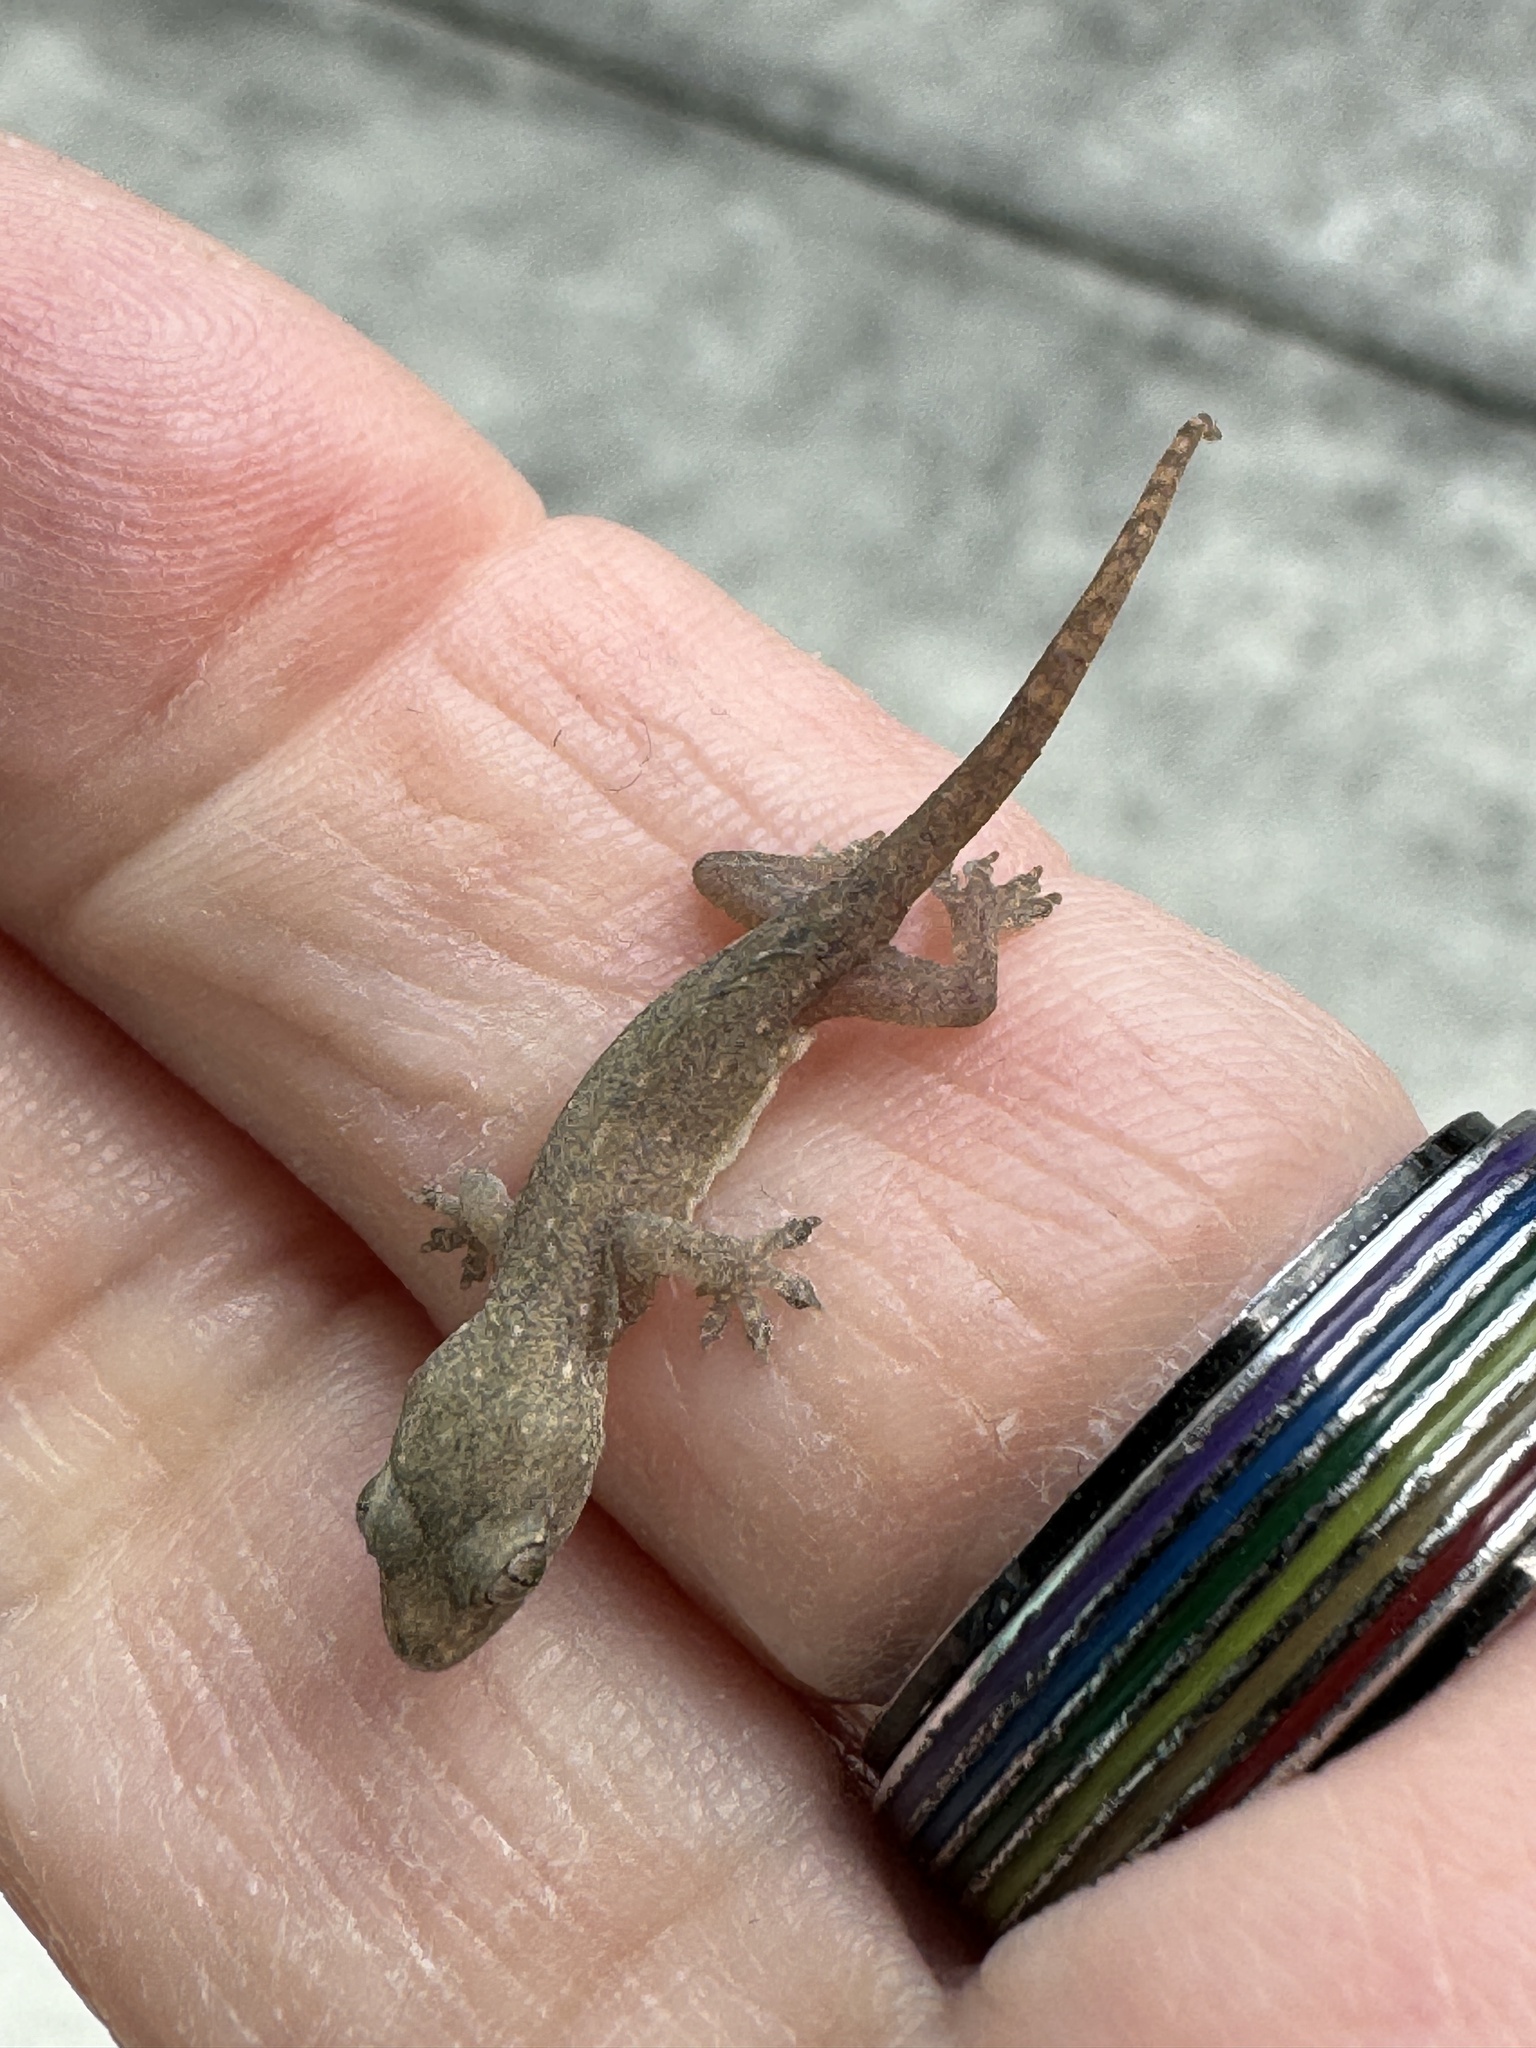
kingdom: Animalia
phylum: Chordata
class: Squamata
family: Gekkonidae
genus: Hemidactylus
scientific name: Hemidactylus frenatus
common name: Common house gecko
